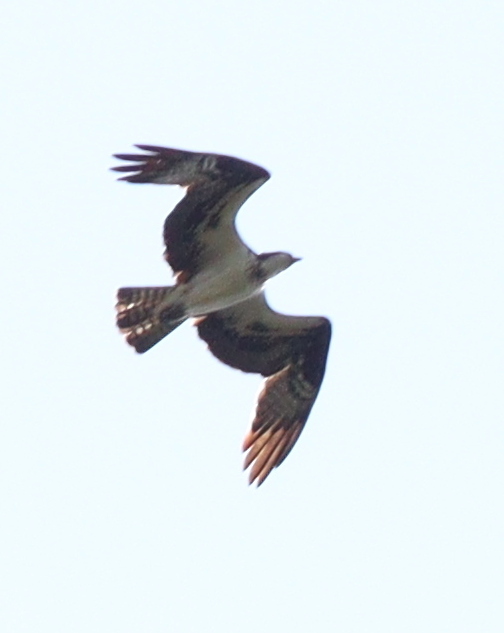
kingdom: Animalia
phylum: Chordata
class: Aves
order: Accipitriformes
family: Pandionidae
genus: Pandion
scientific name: Pandion haliaetus
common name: Osprey
